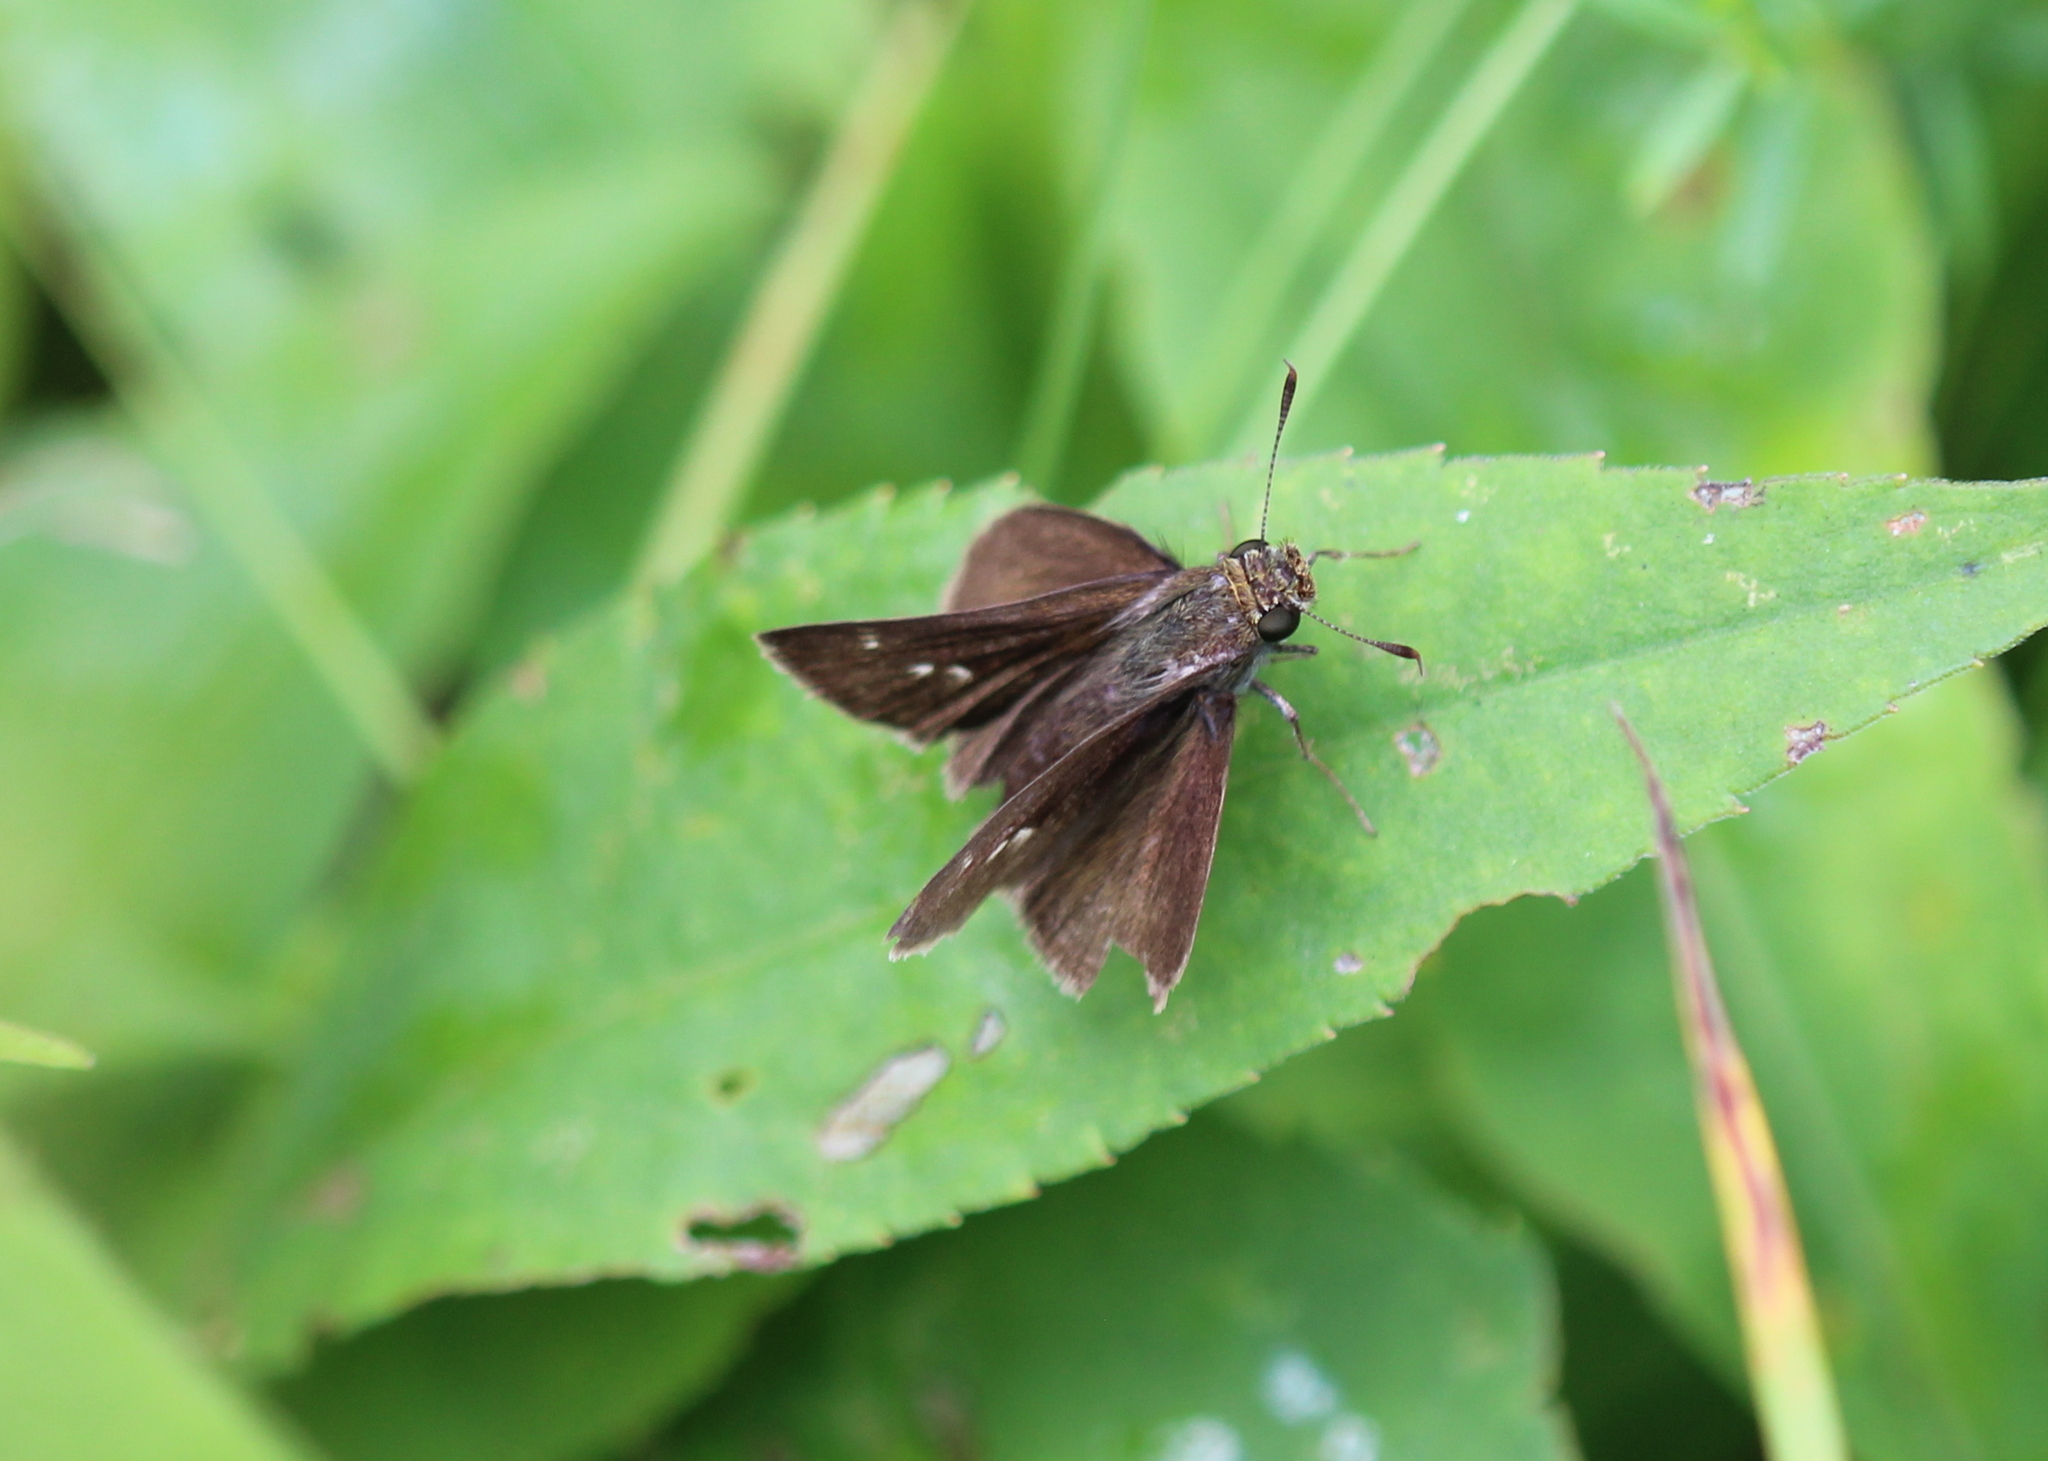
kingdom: Animalia
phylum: Arthropoda
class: Insecta
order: Lepidoptera
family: Hesperiidae
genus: Euphyes
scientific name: Euphyes vestris
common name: Dun skipper
